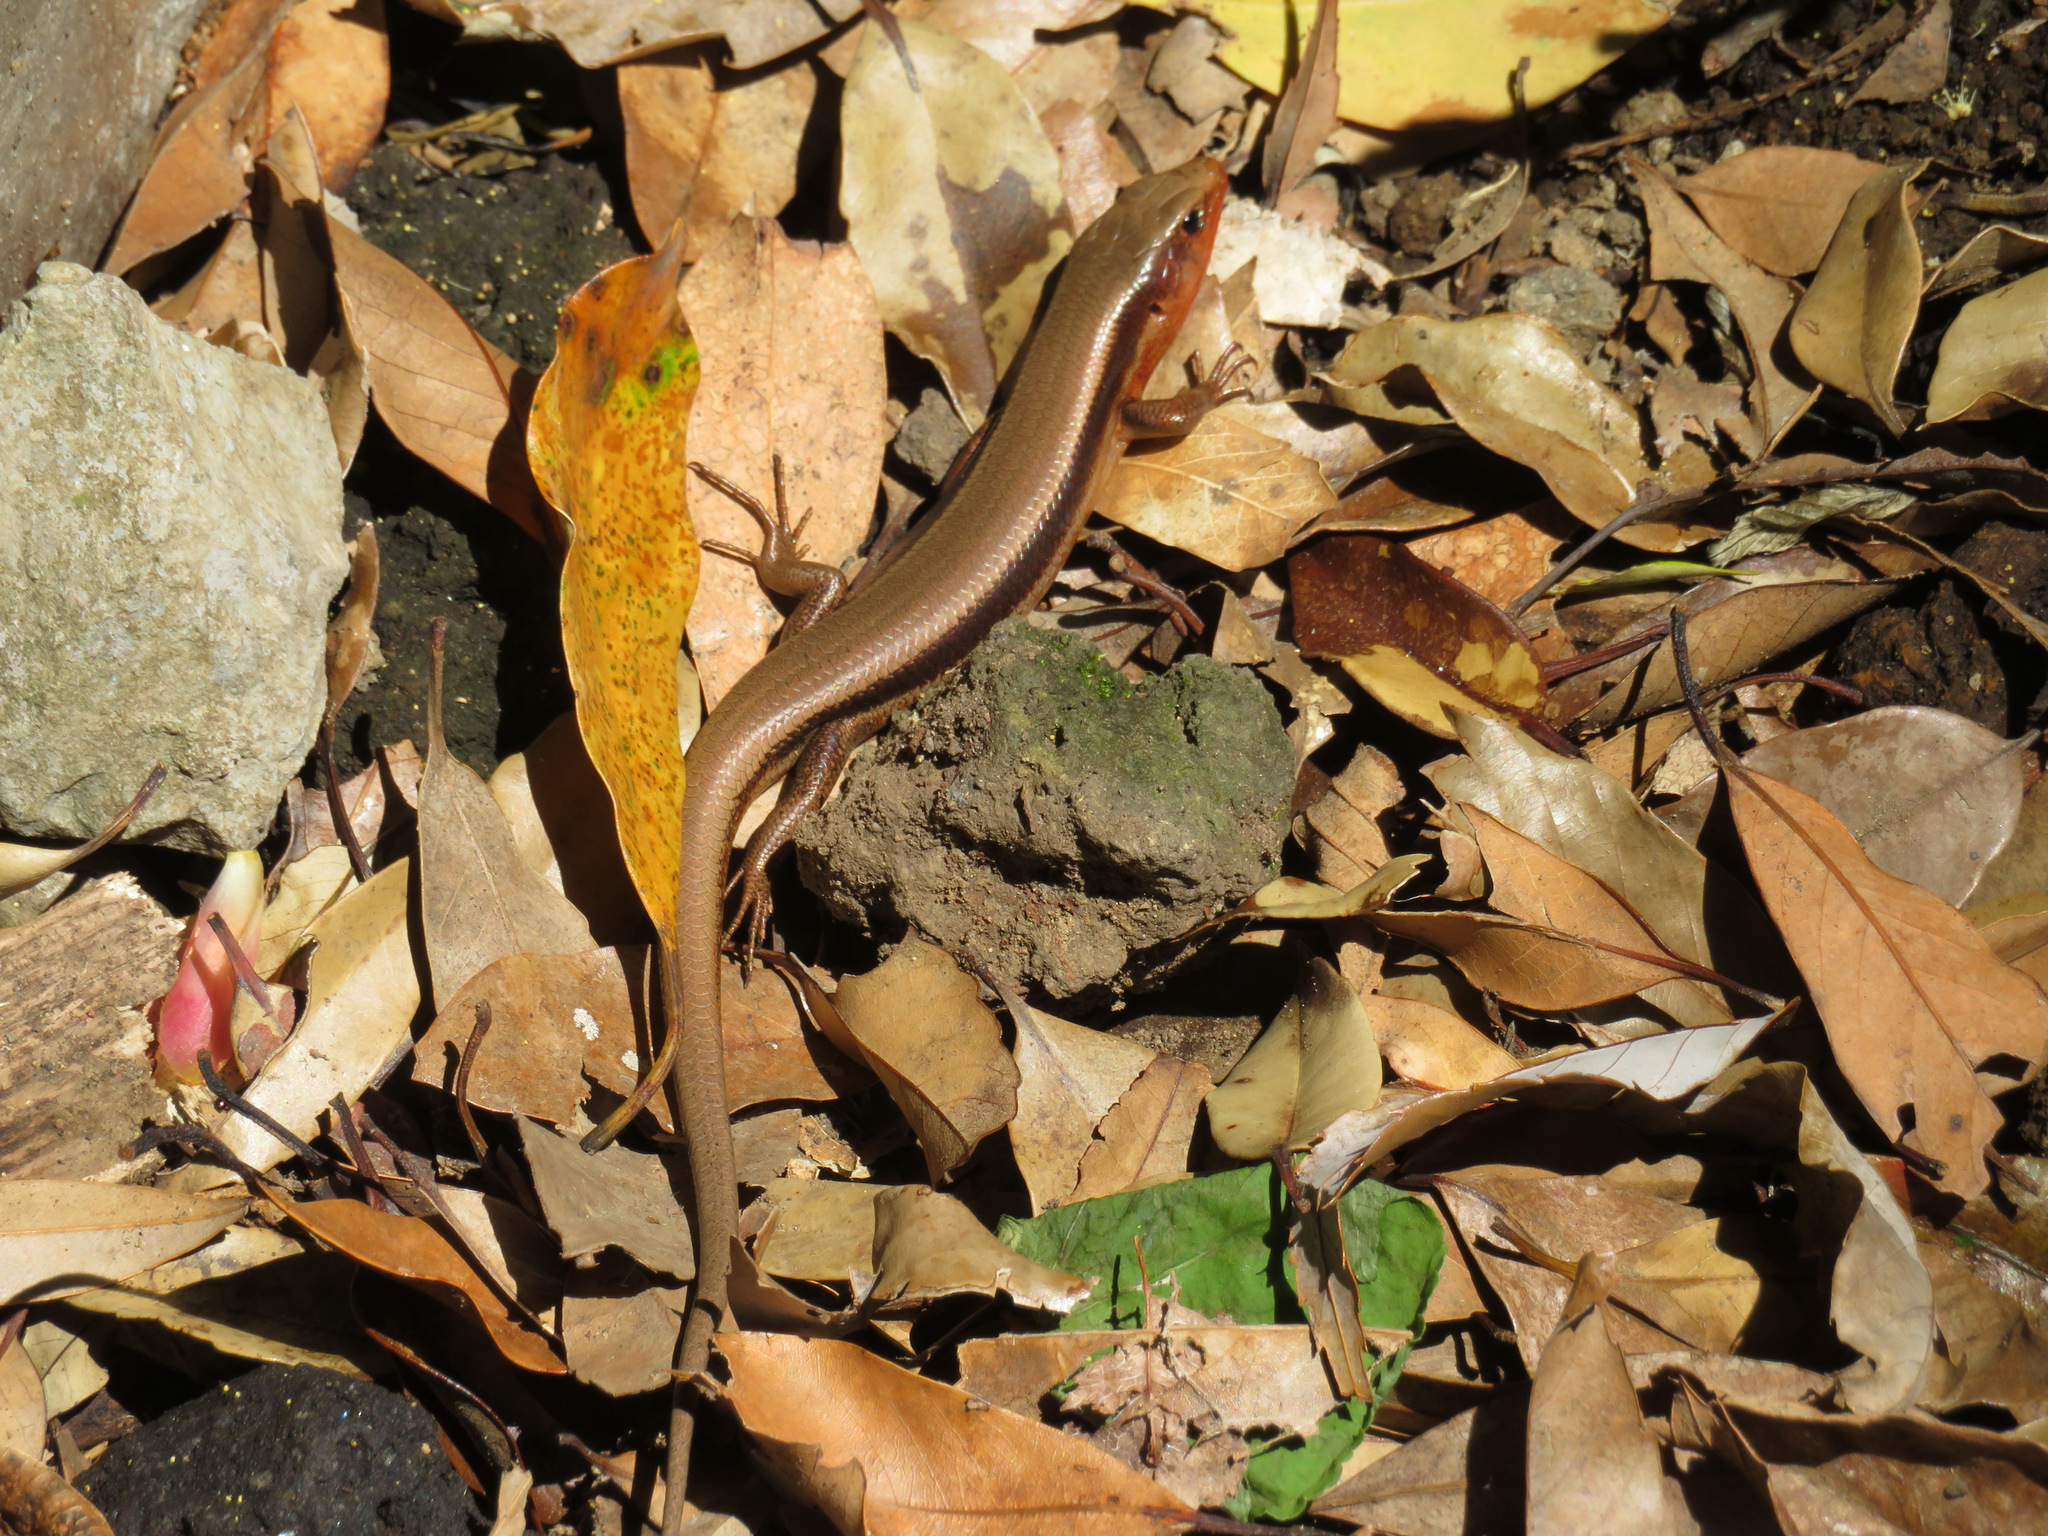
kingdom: Animalia
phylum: Chordata
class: Squamata
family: Scincidae
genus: Plestiodon
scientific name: Plestiodon japonicus
